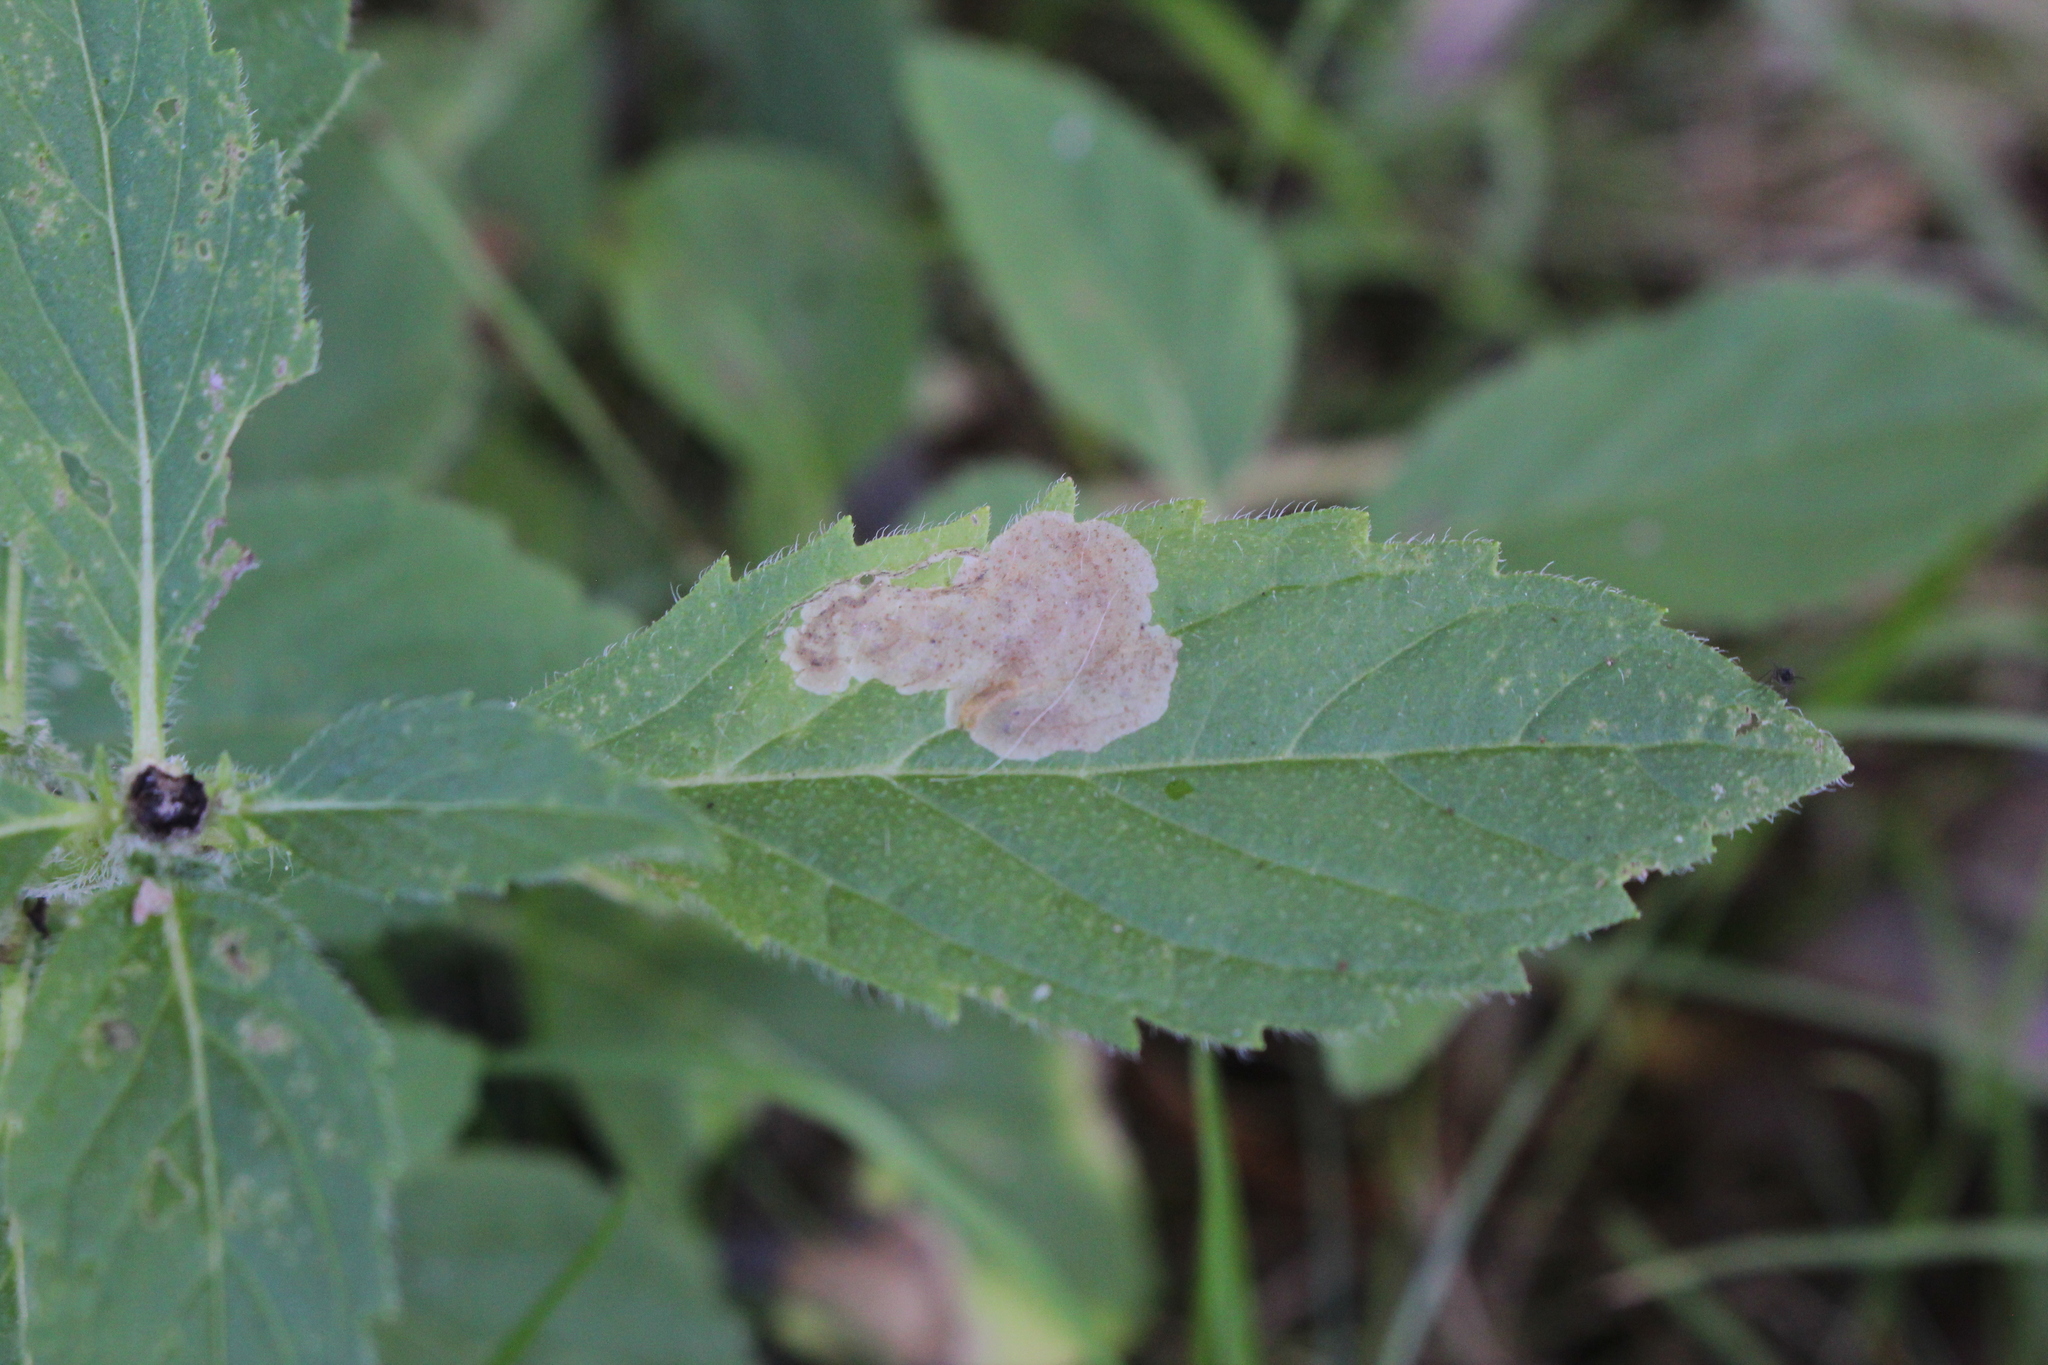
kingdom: Animalia
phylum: Arthropoda
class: Insecta
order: Diptera
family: Agromyzidae
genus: Calycomyza
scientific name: Calycomyza menthae
